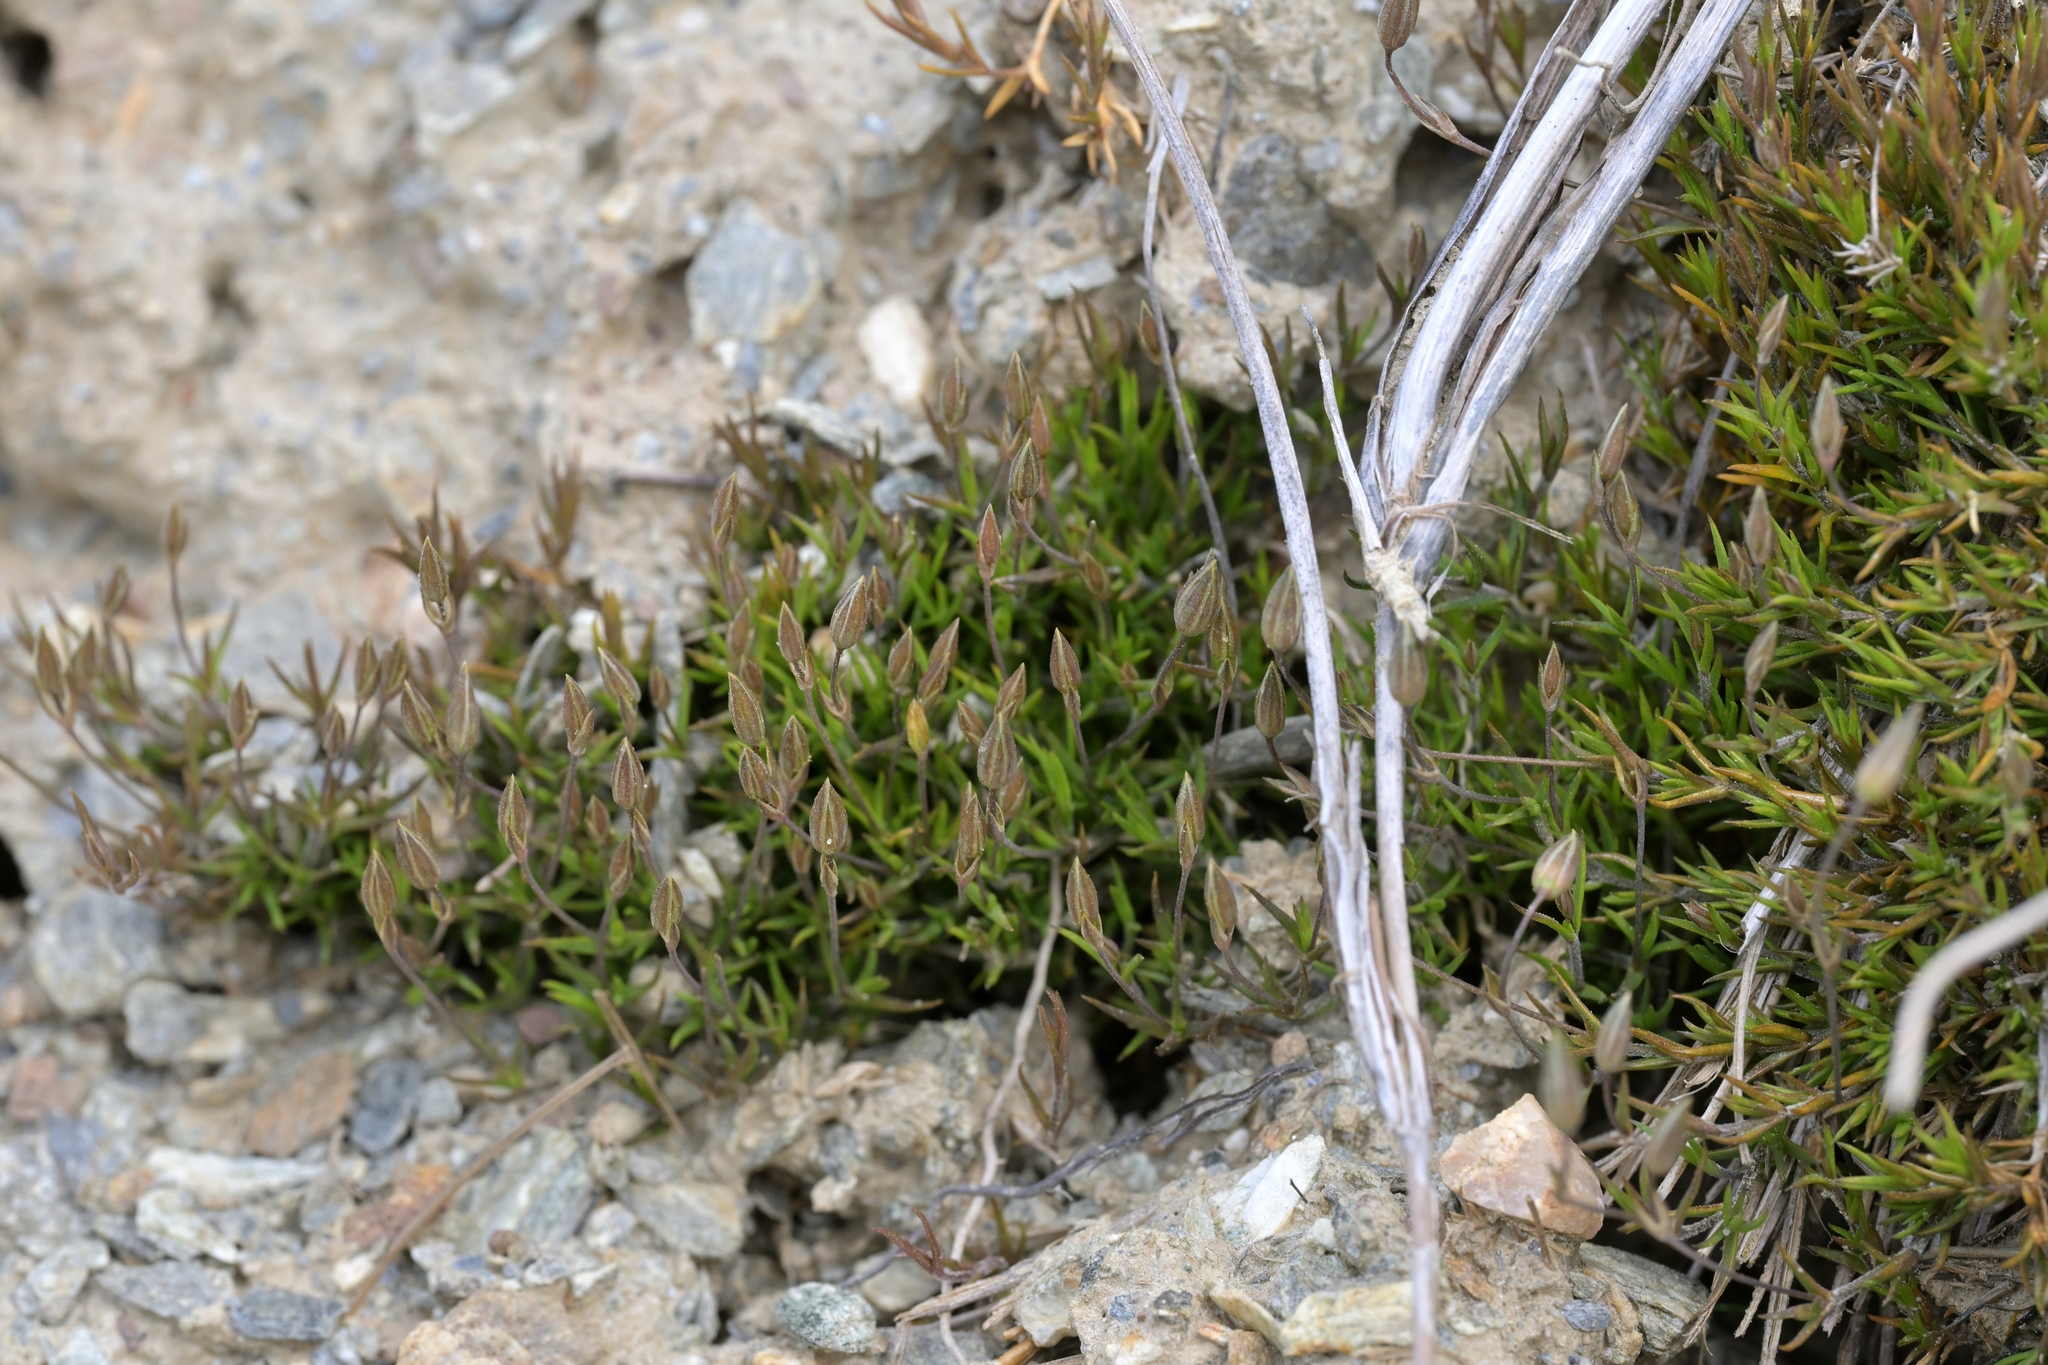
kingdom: Plantae
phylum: Tracheophyta
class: Magnoliopsida
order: Caryophyllales
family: Caryophyllaceae
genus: Stellaria
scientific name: Stellaria gracilenta
